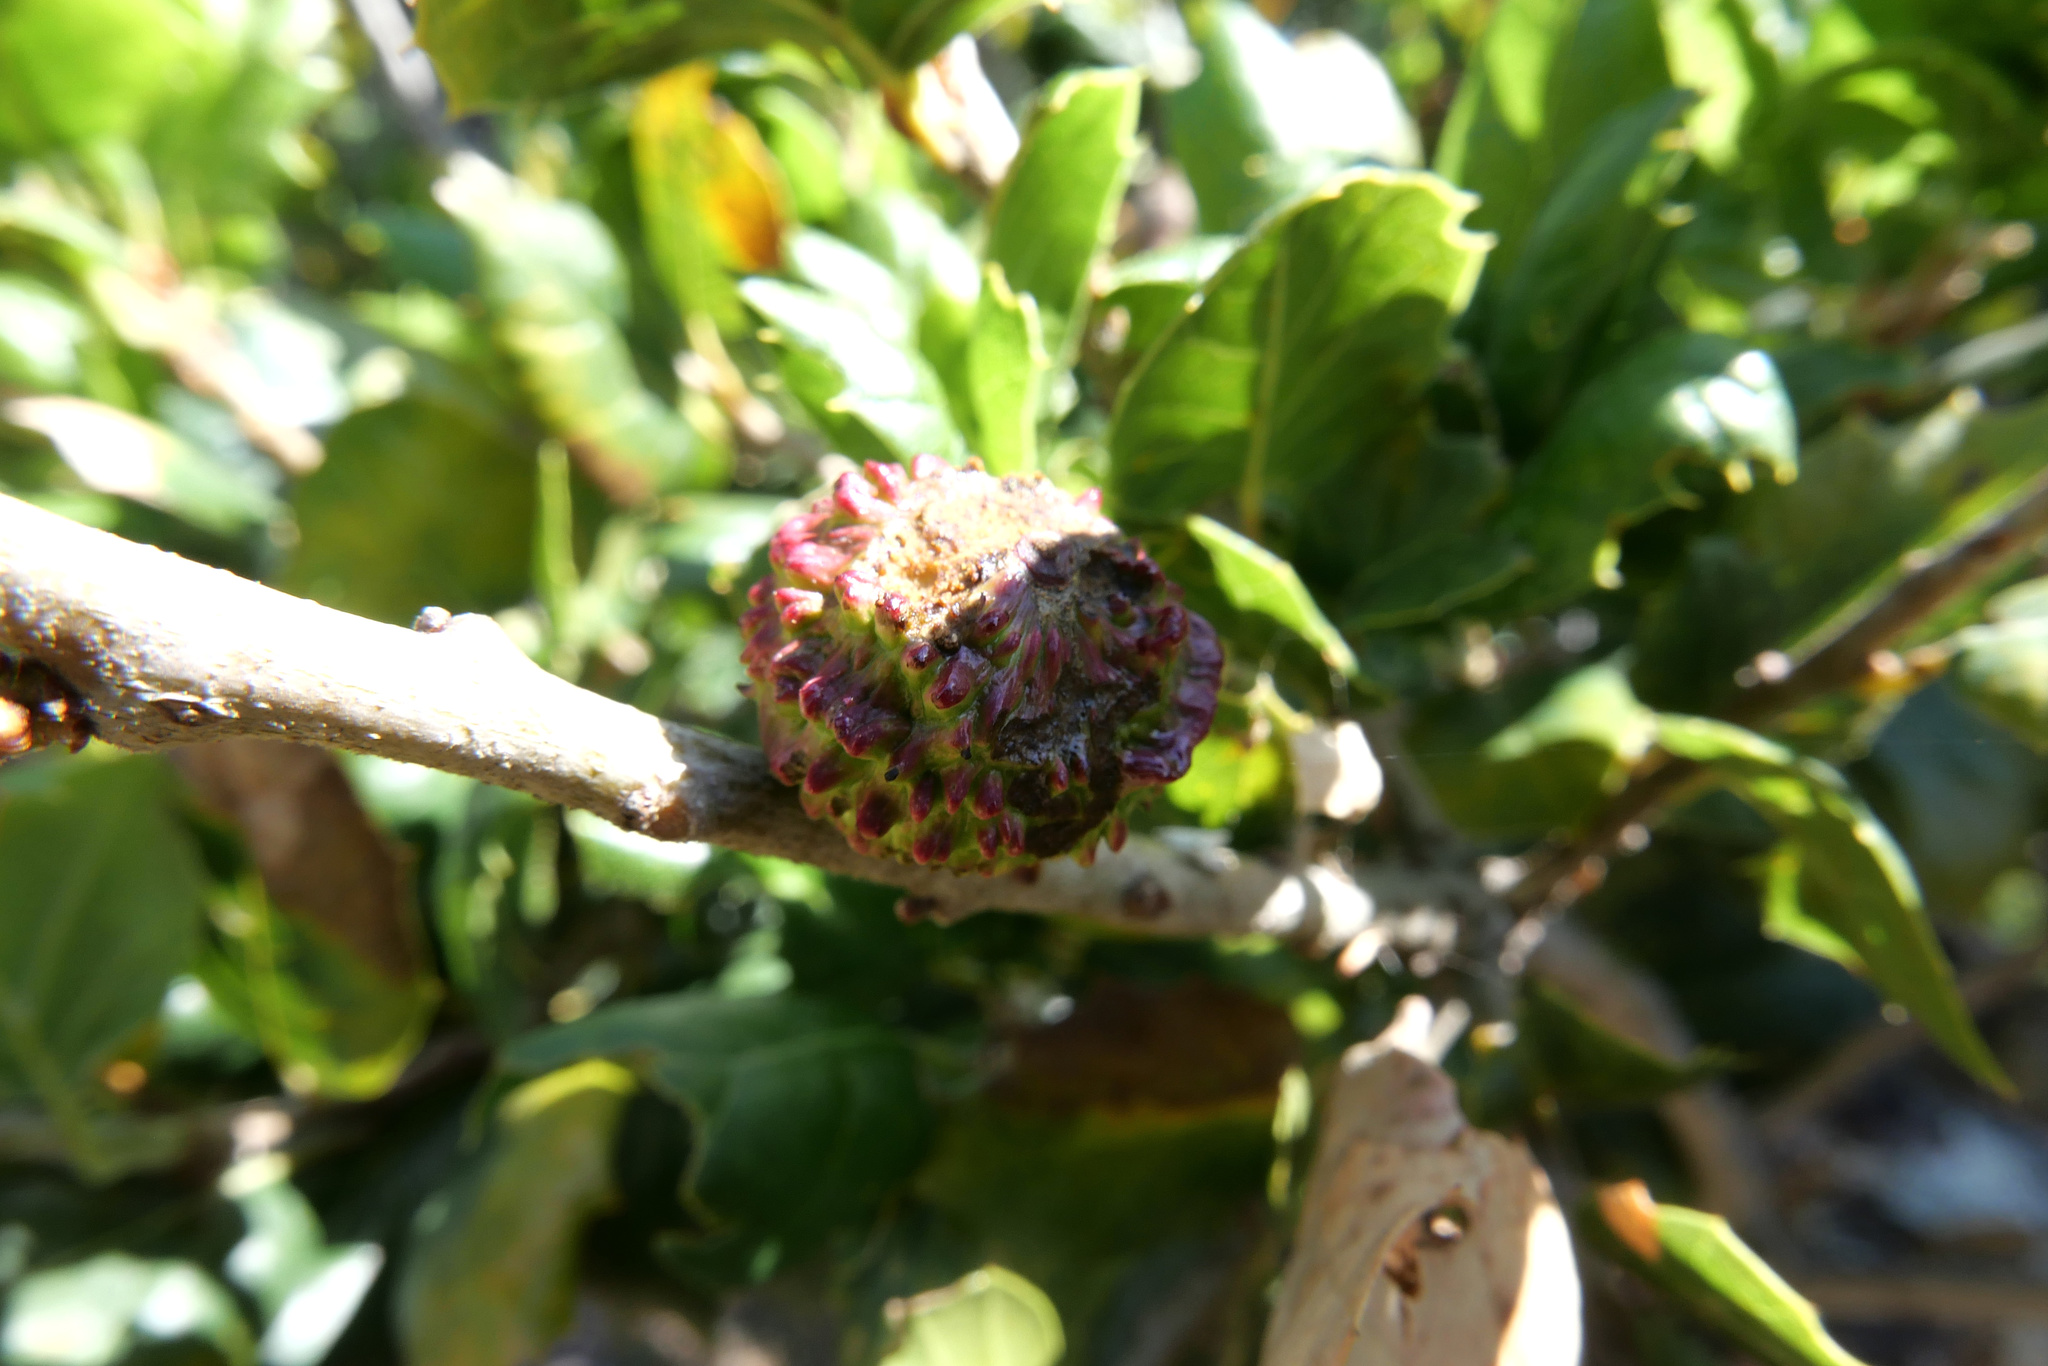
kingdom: Animalia
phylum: Arthropoda
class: Insecta
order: Hymenoptera
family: Cynipidae
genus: Amphibolips
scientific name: Amphibolips quercuspomiformis
